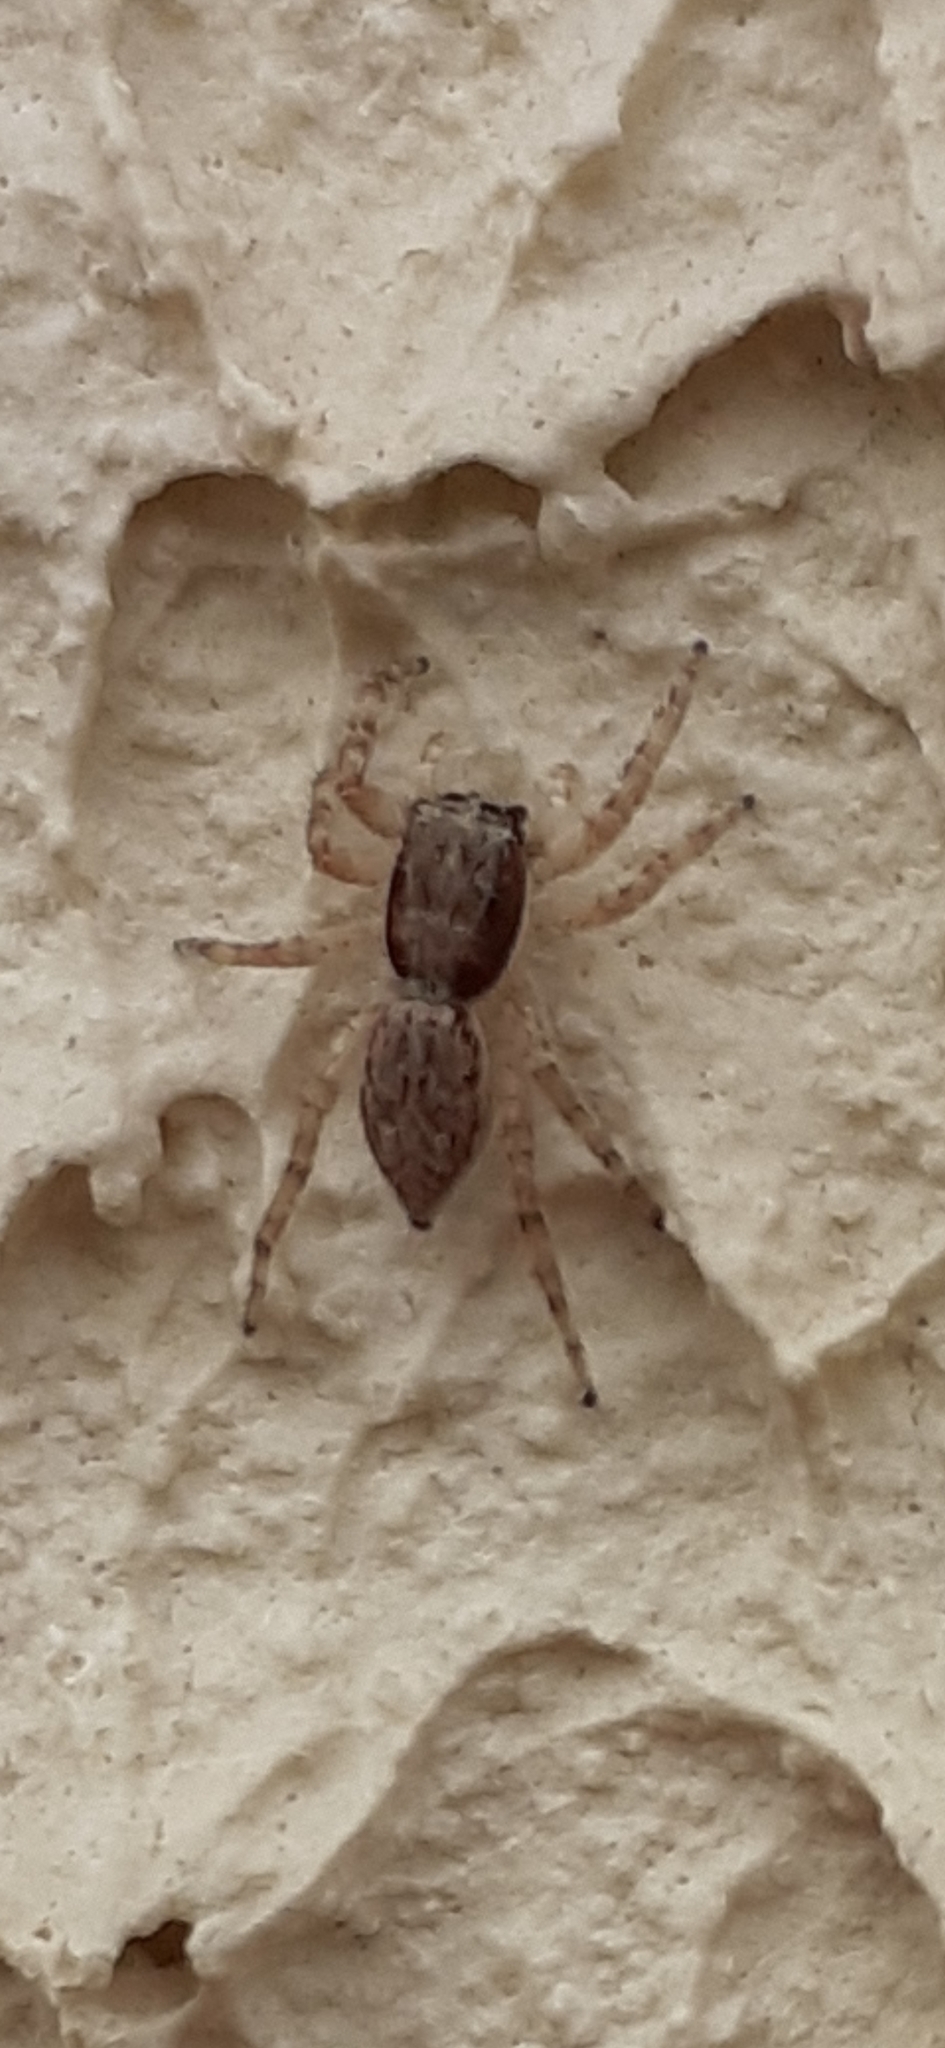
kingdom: Animalia
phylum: Arthropoda
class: Arachnida
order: Araneae
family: Salticidae
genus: Menemerus
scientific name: Menemerus bivittatus
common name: Gray wall jumper
